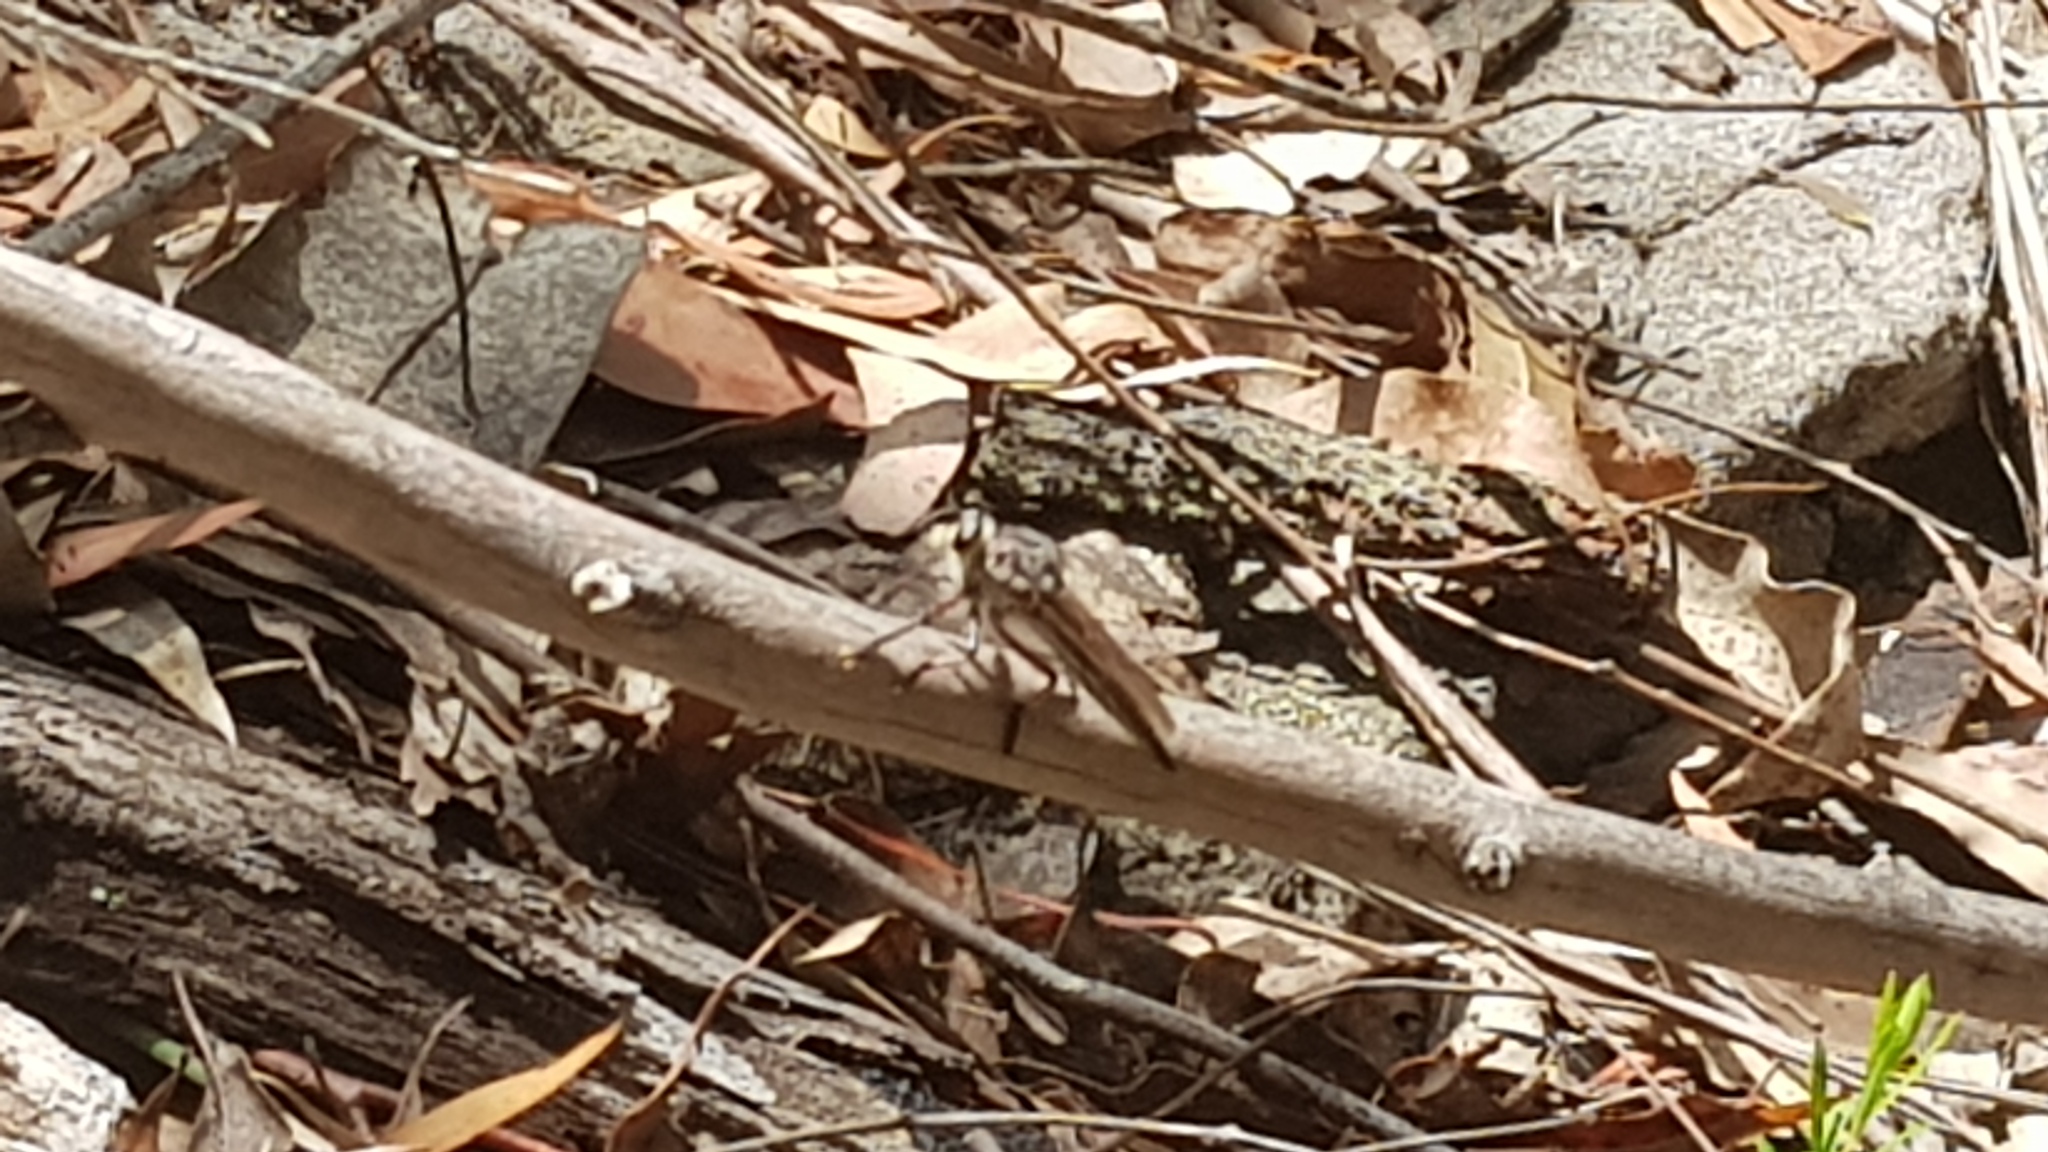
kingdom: Animalia
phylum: Arthropoda
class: Insecta
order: Diptera
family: Asilidae
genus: Neoaratus
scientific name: Neoaratus hercules
